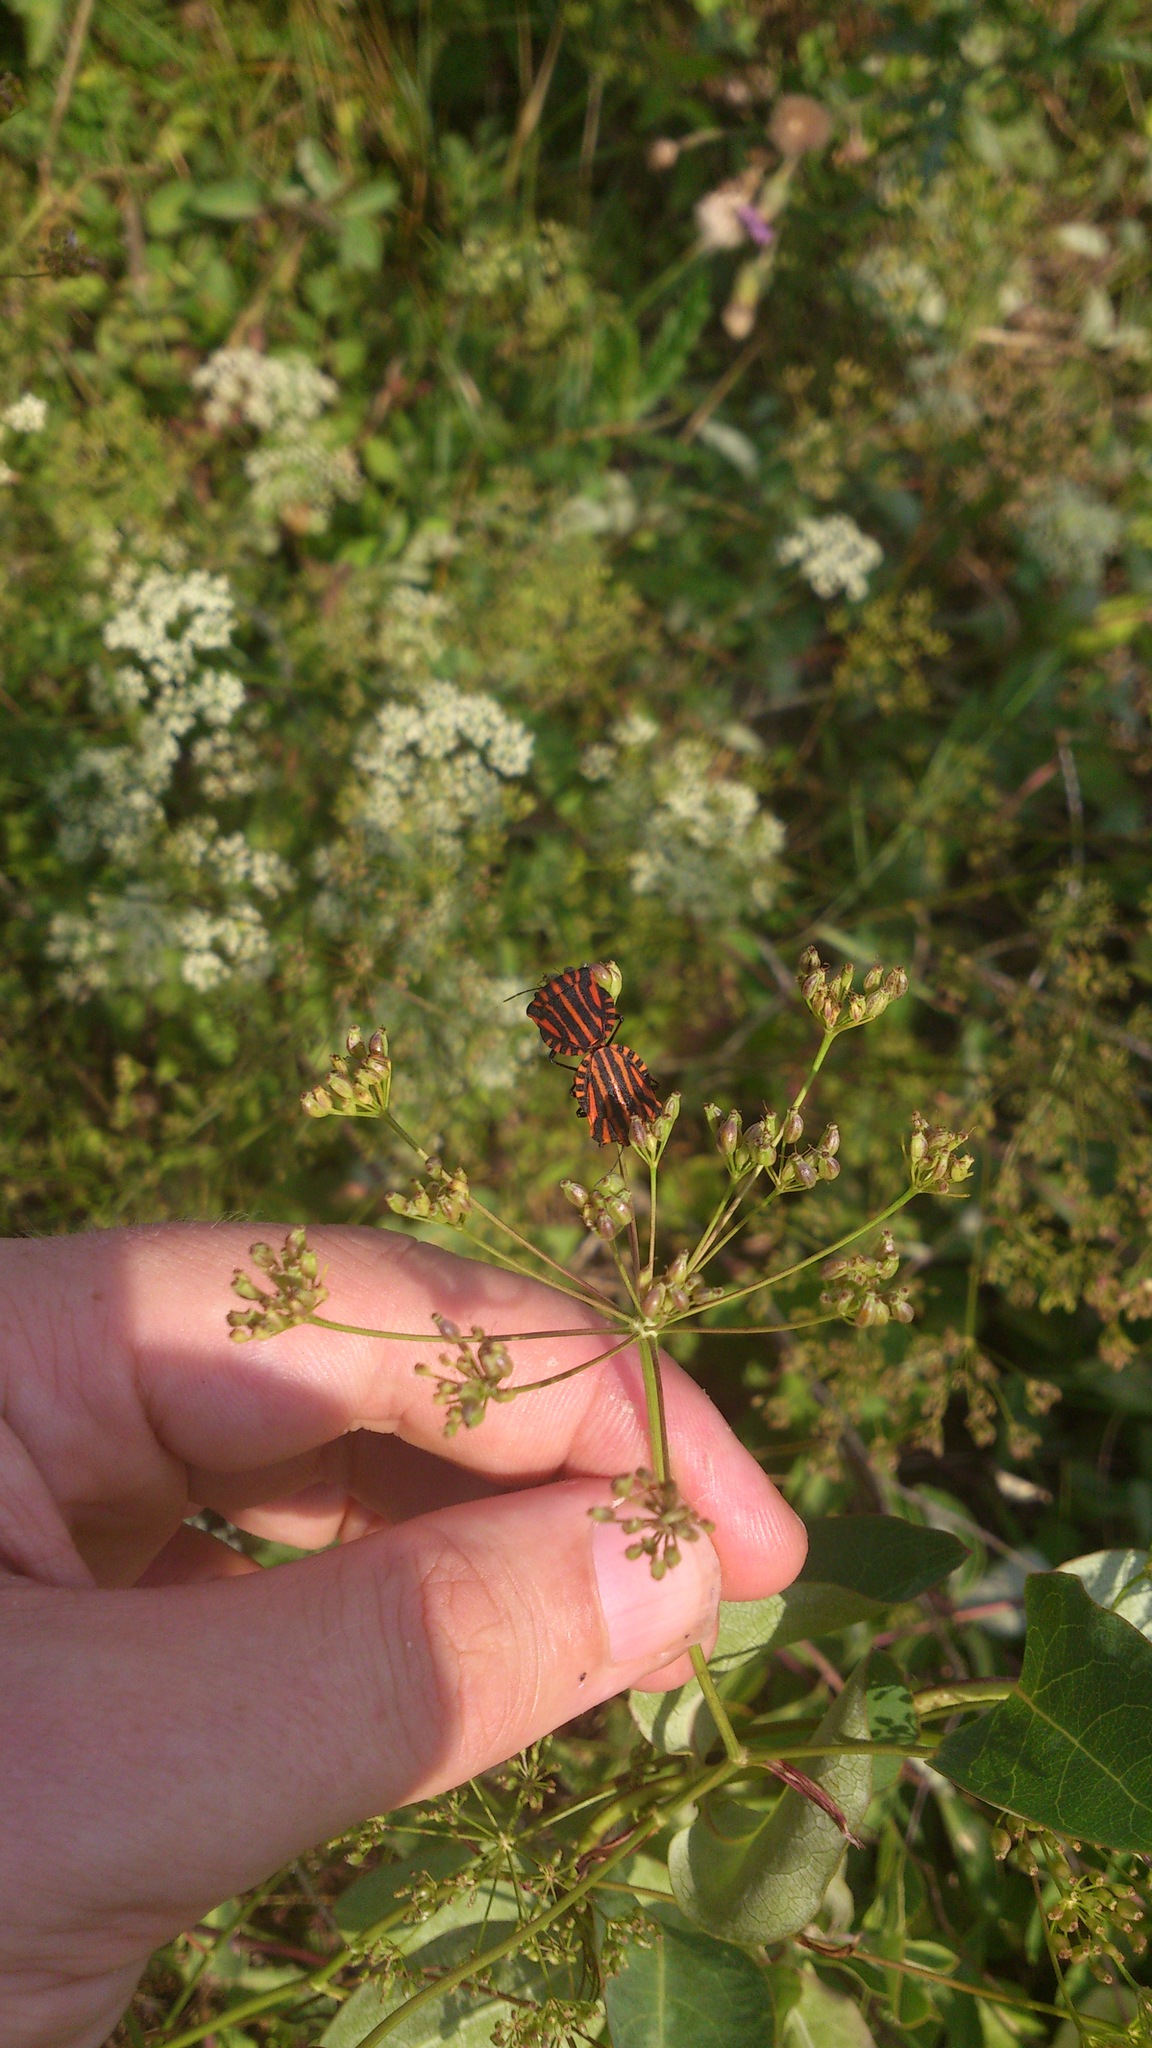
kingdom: Animalia
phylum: Arthropoda
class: Insecta
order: Hemiptera
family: Pentatomidae
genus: Graphosoma
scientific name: Graphosoma italicum
